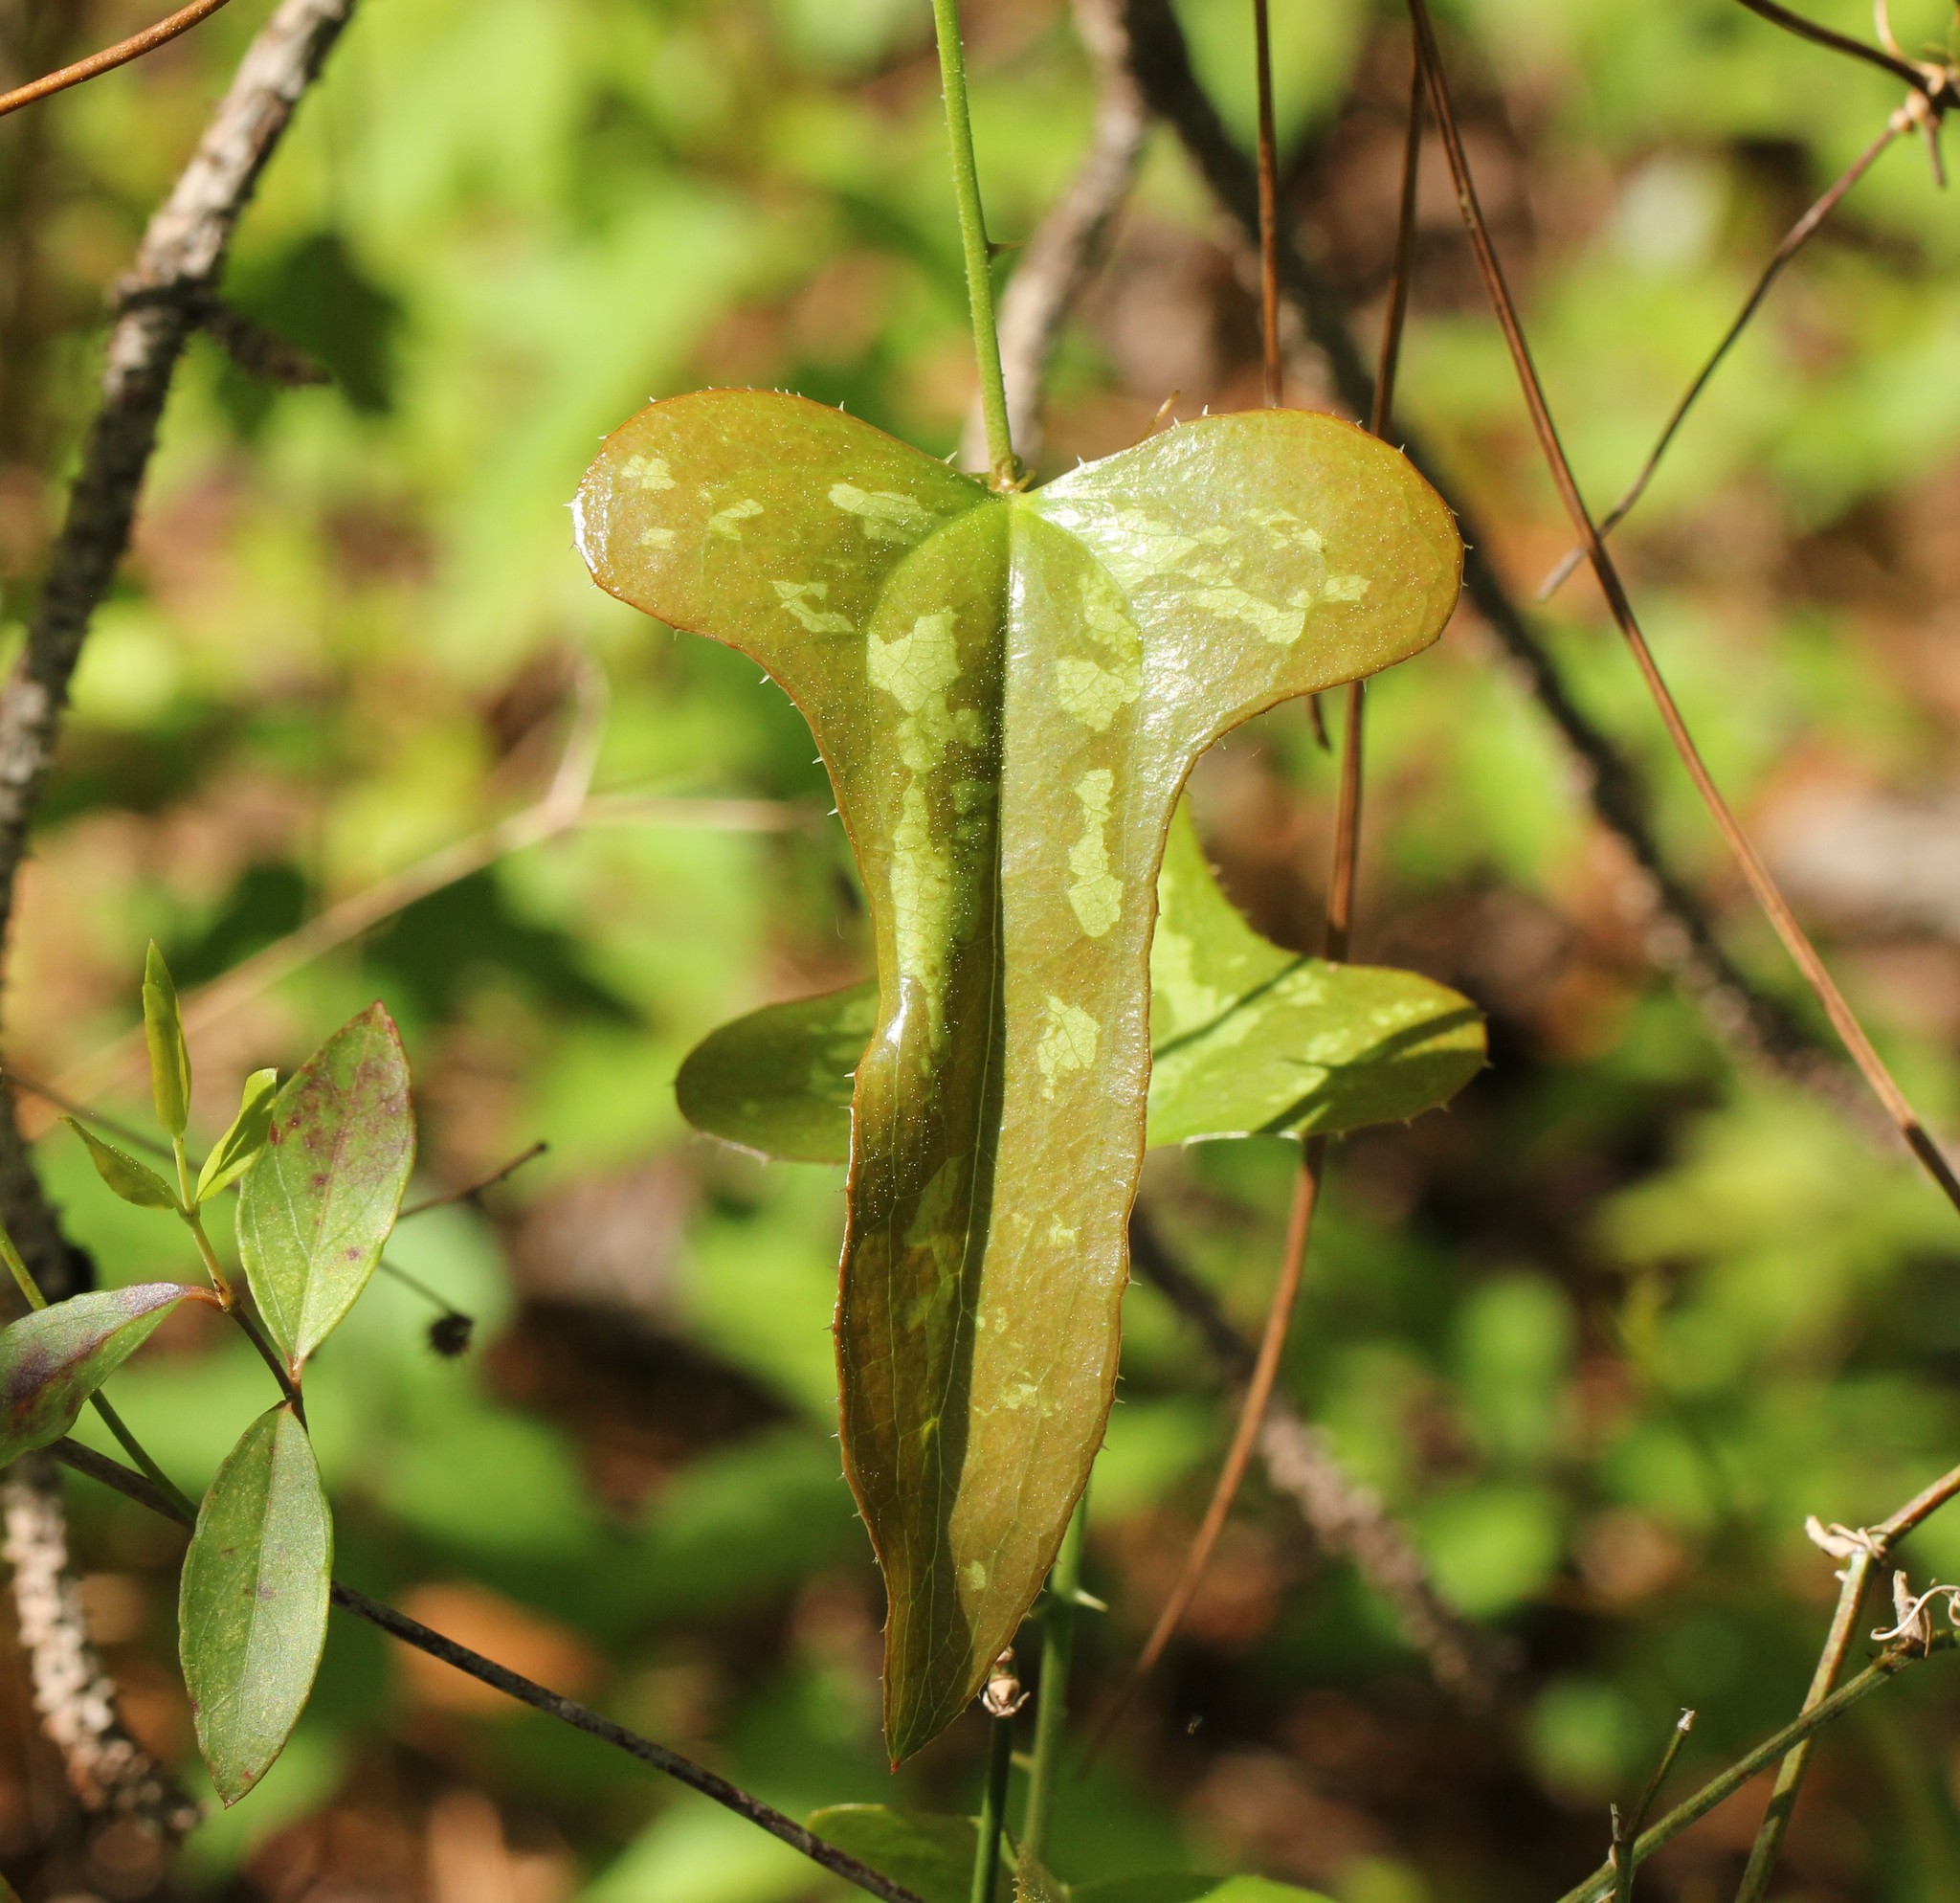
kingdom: Plantae
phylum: Tracheophyta
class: Liliopsida
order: Liliales
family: Smilacaceae
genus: Smilax
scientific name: Smilax bona-nox
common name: Catbrier
